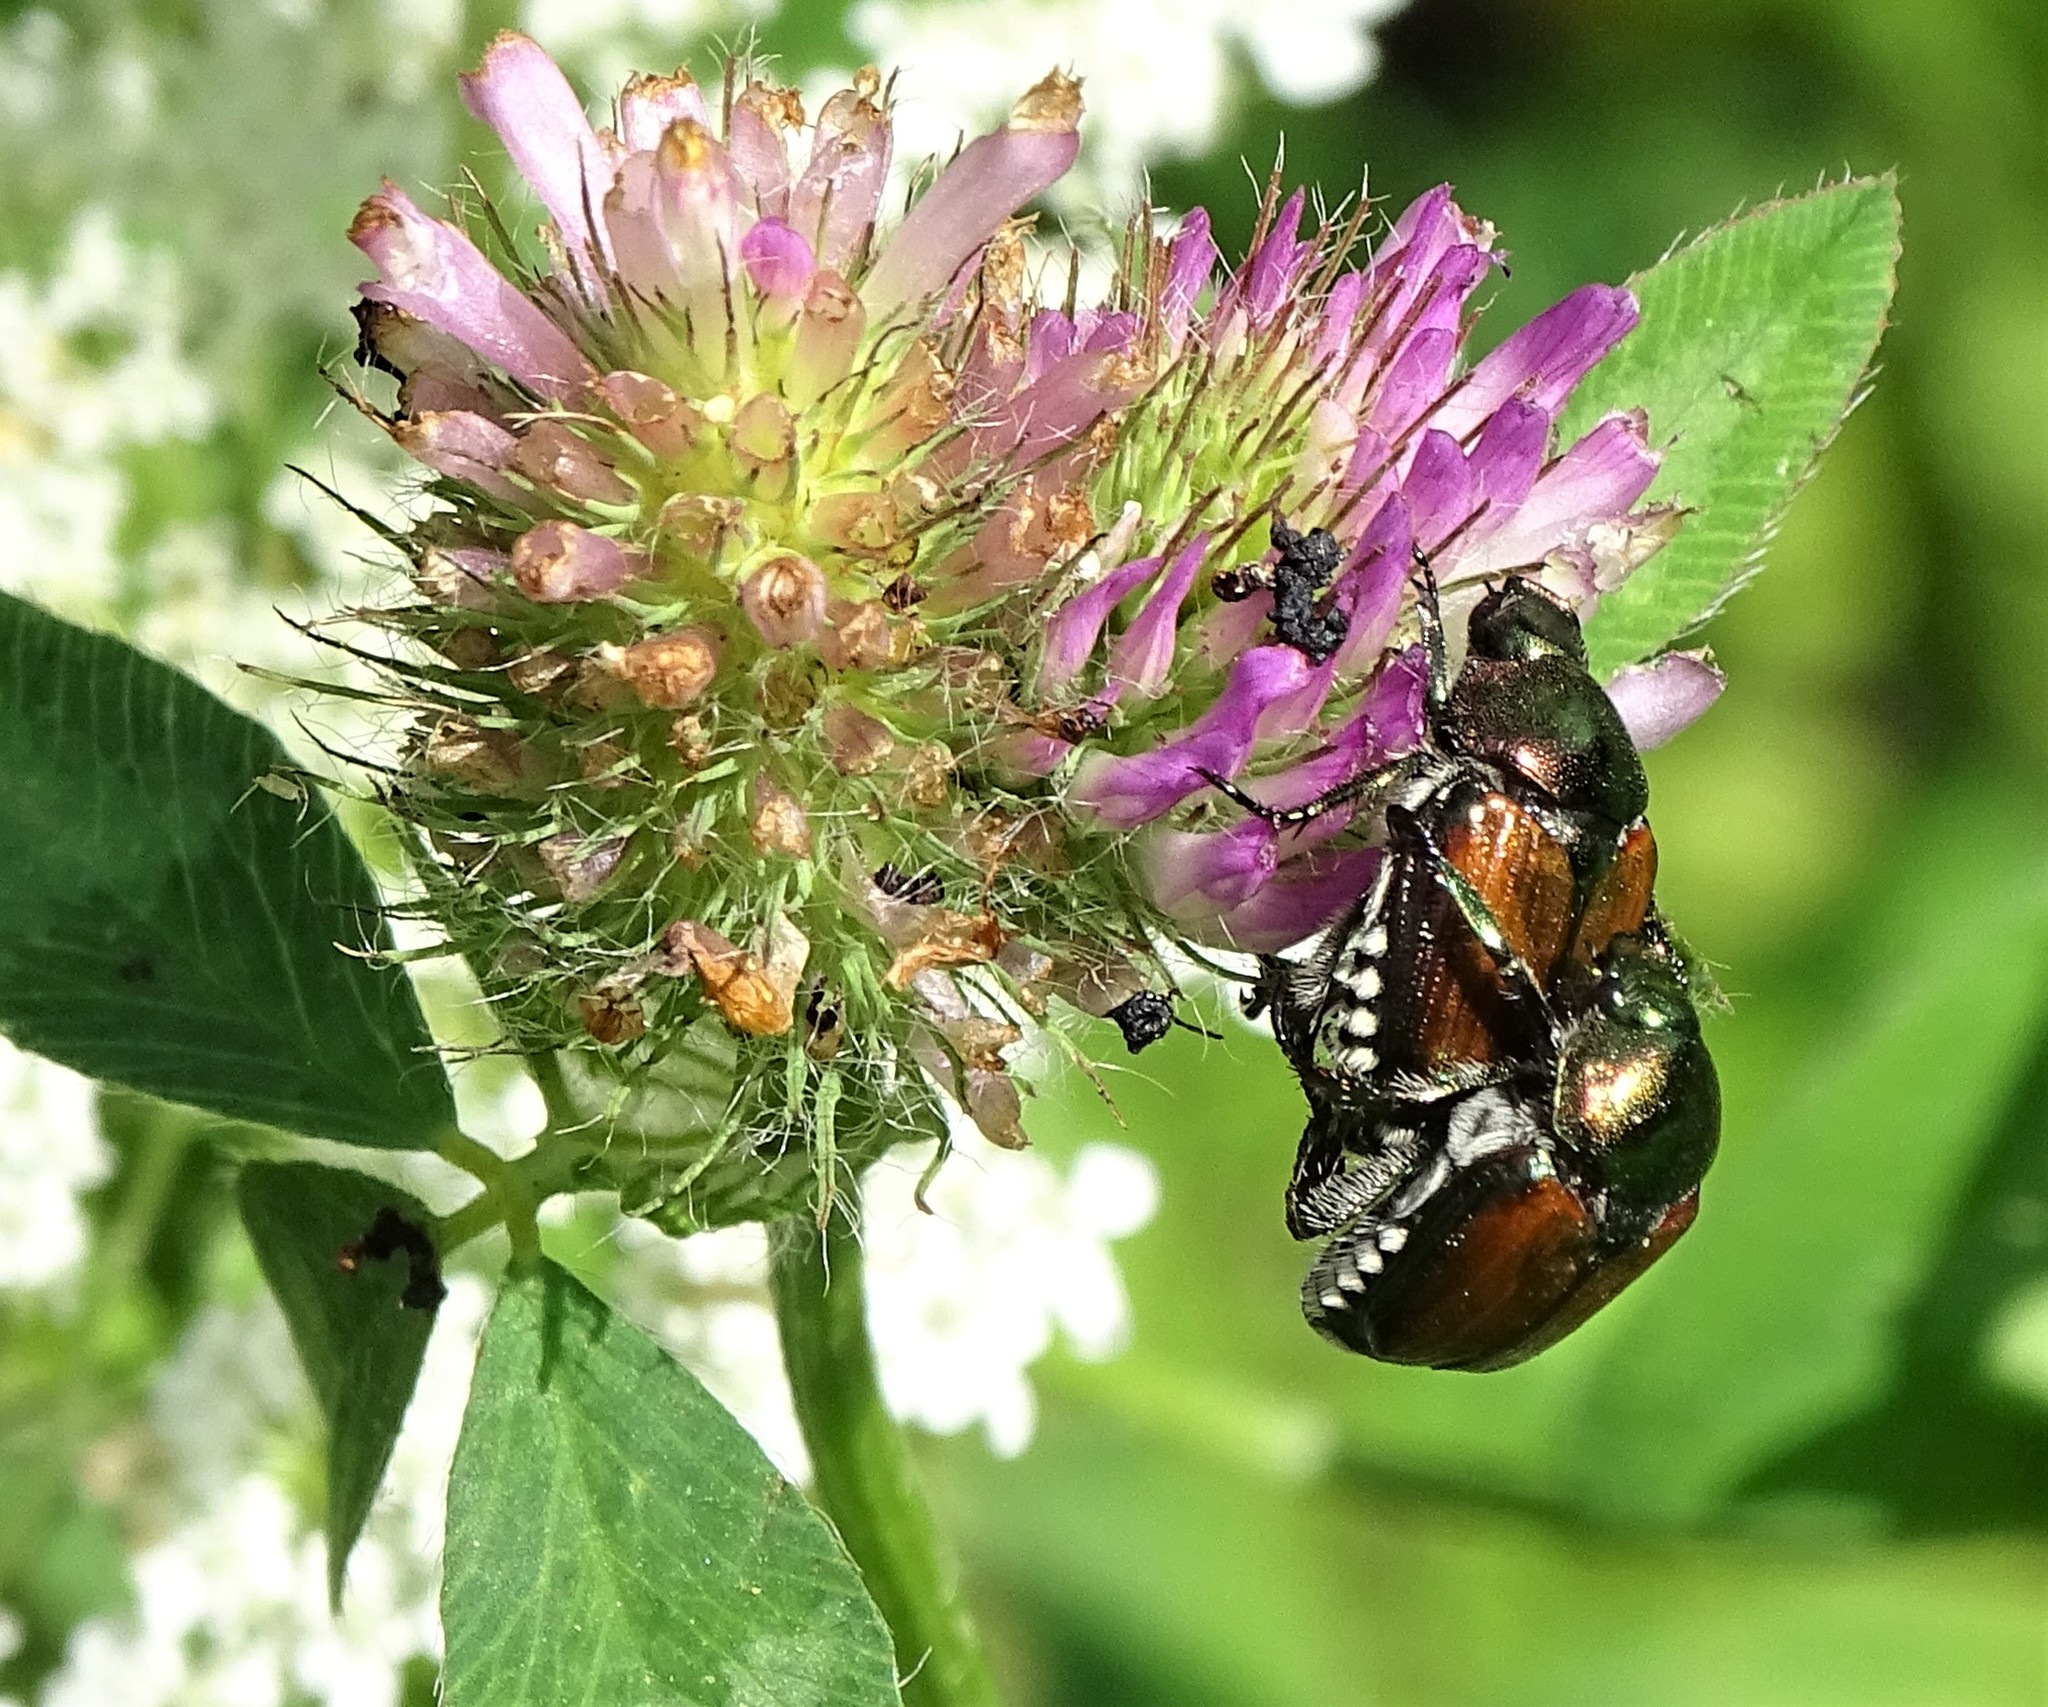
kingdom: Animalia
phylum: Arthropoda
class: Insecta
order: Coleoptera
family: Scarabaeidae
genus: Popillia
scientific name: Popillia japonica
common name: Japanese beetle
